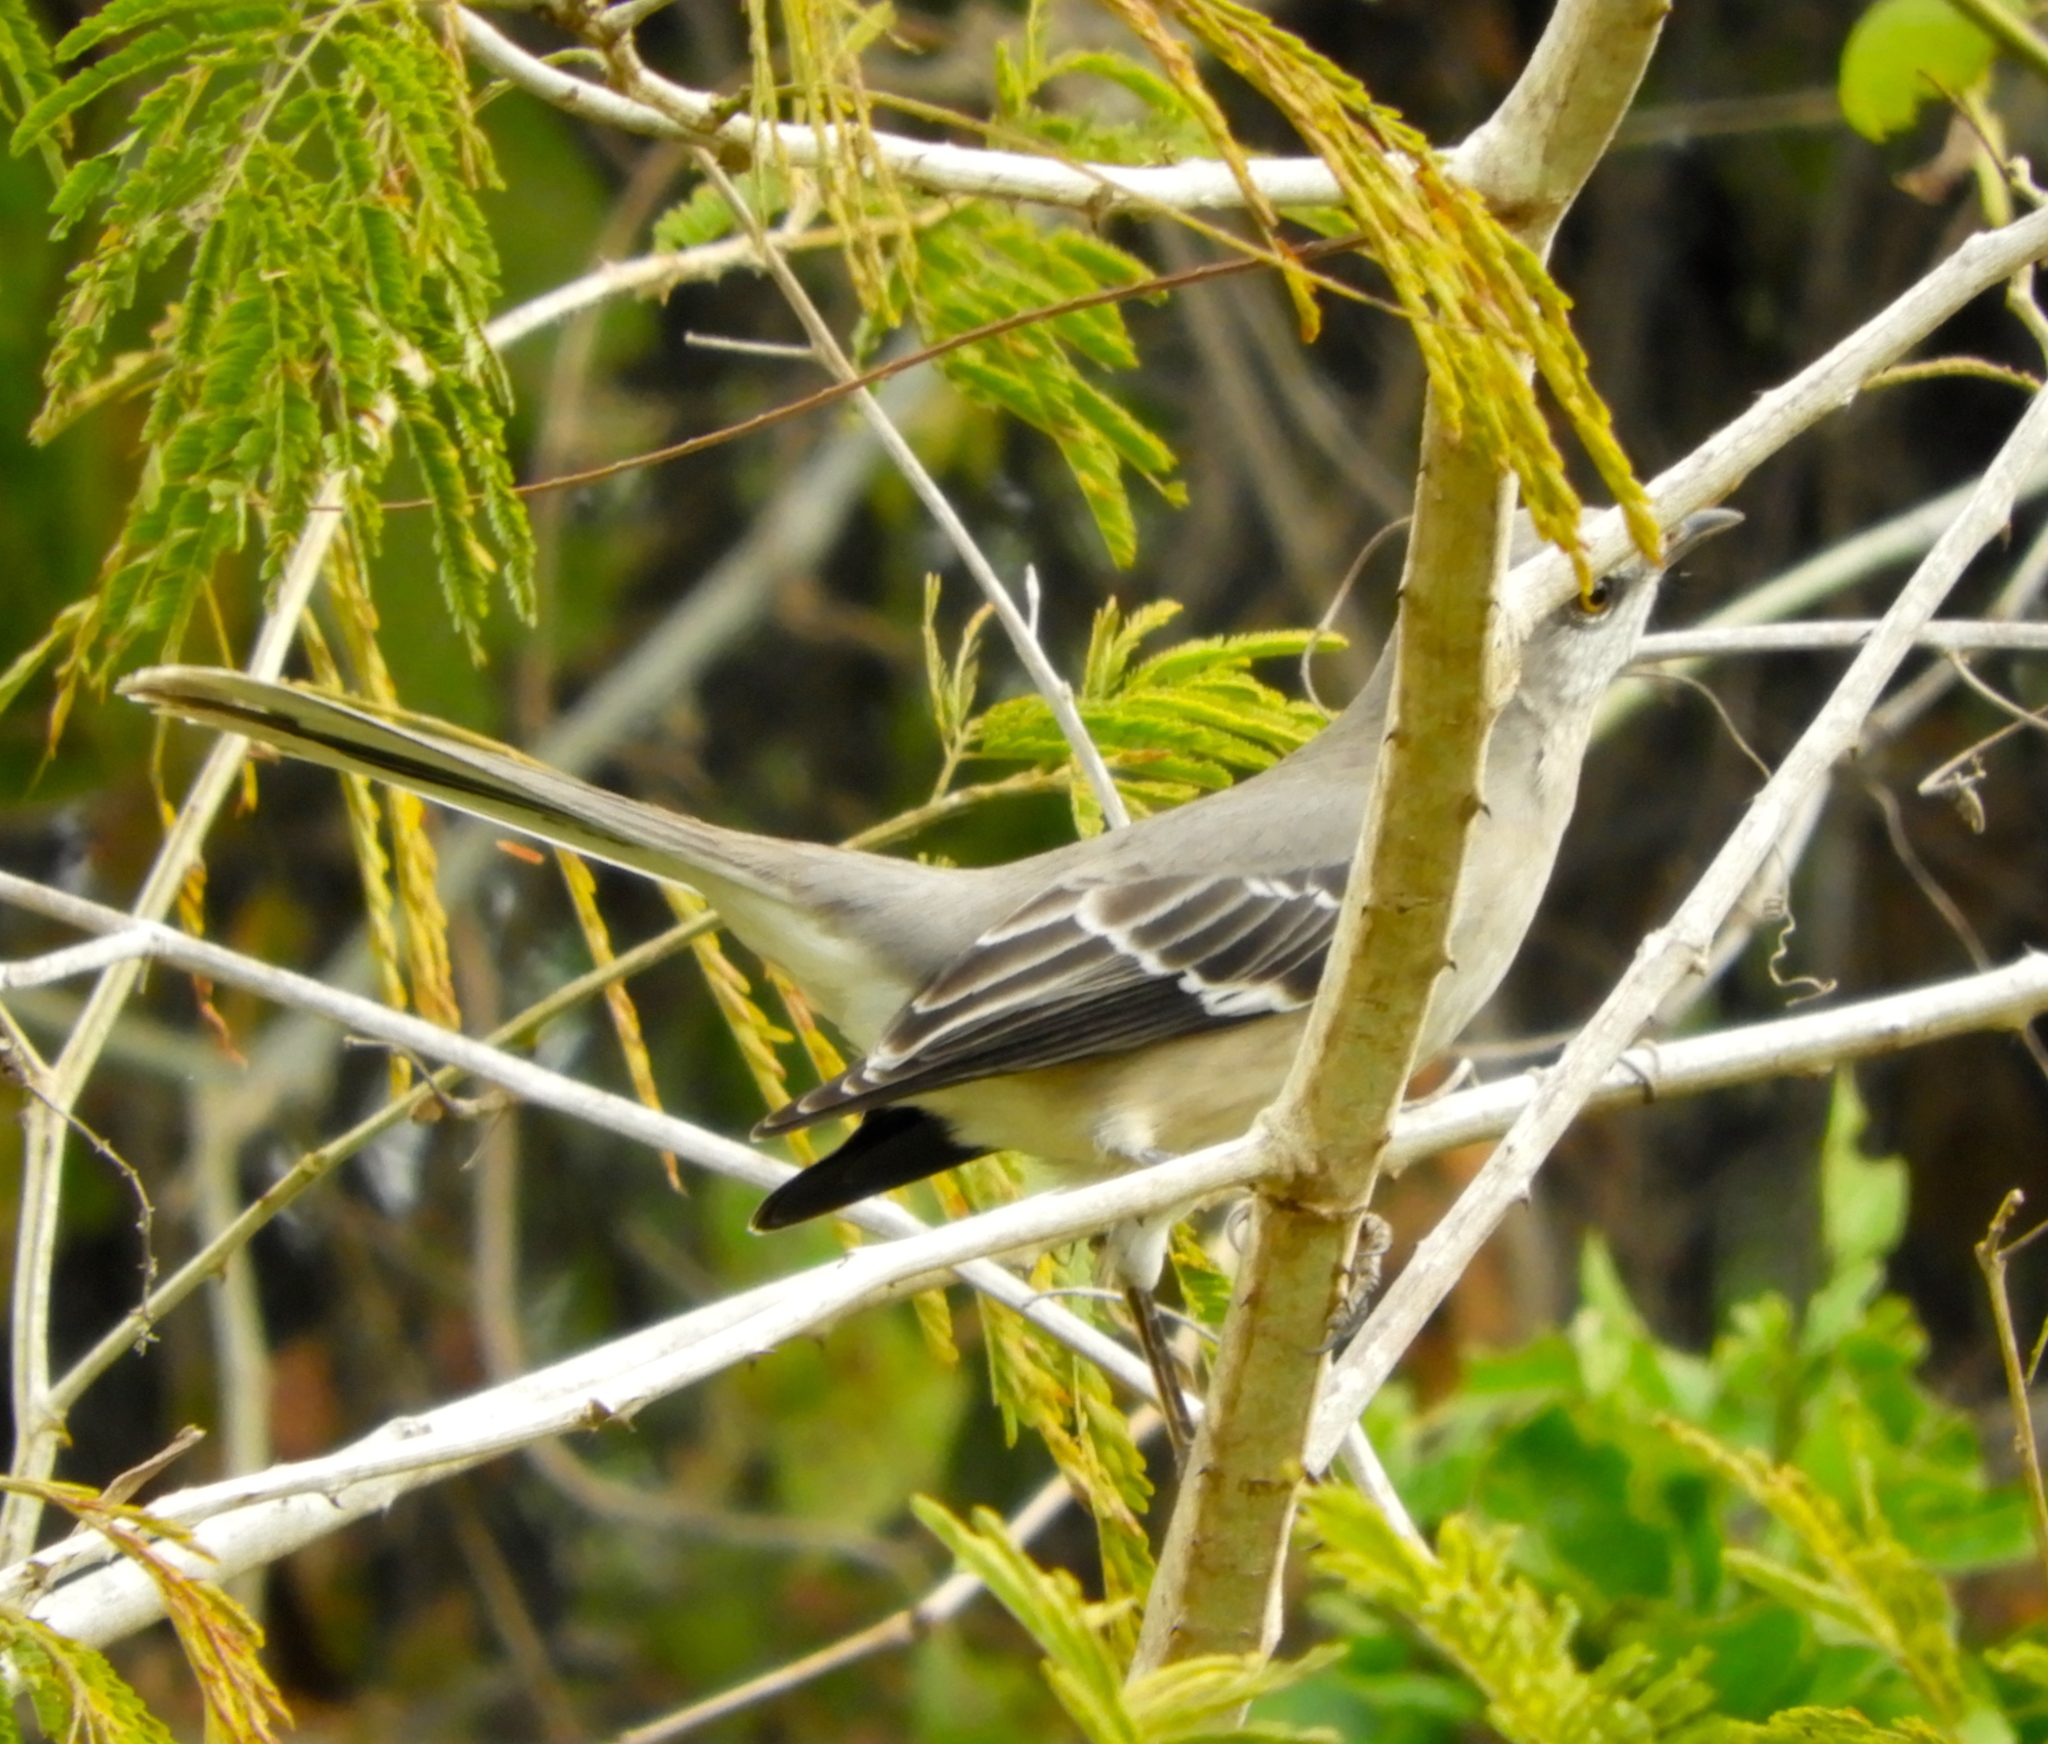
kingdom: Animalia
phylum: Chordata
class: Aves
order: Passeriformes
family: Mimidae
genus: Mimus
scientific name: Mimus polyglottos
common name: Northern mockingbird
